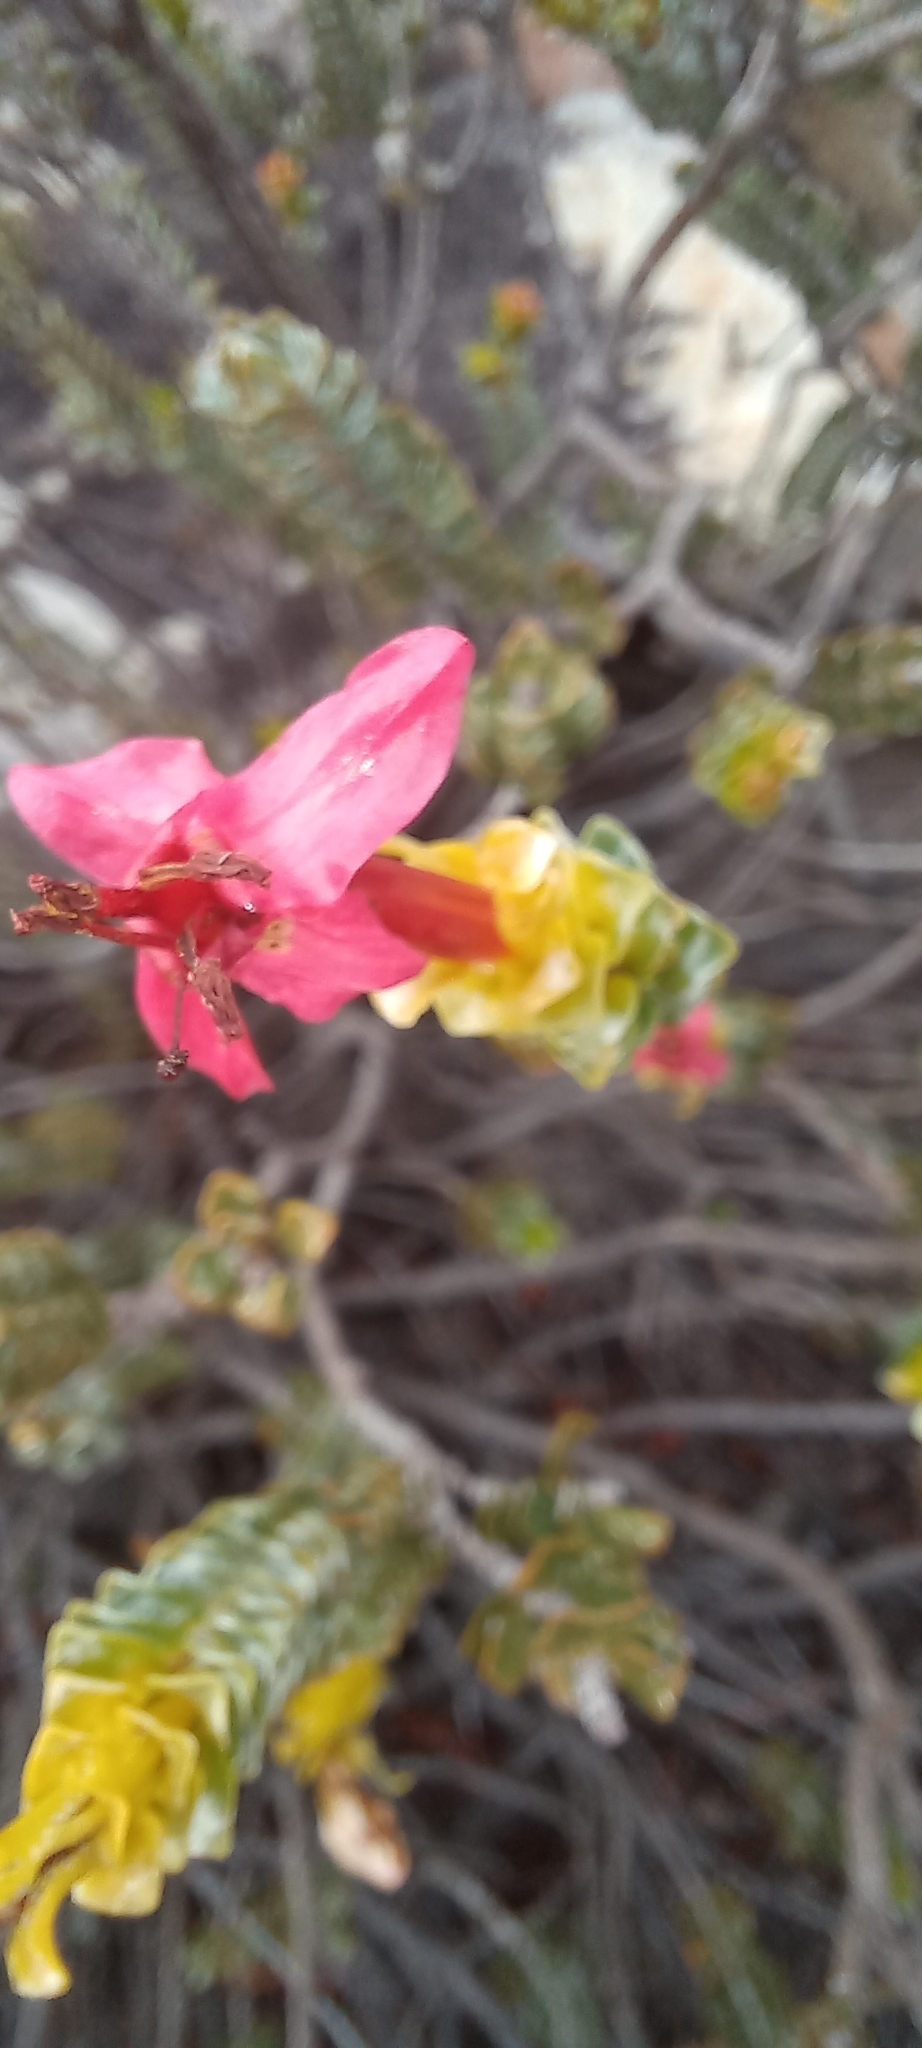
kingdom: Plantae
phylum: Tracheophyta
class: Magnoliopsida
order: Myrtales
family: Penaeaceae
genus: Saltera
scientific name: Saltera sarcocolla
